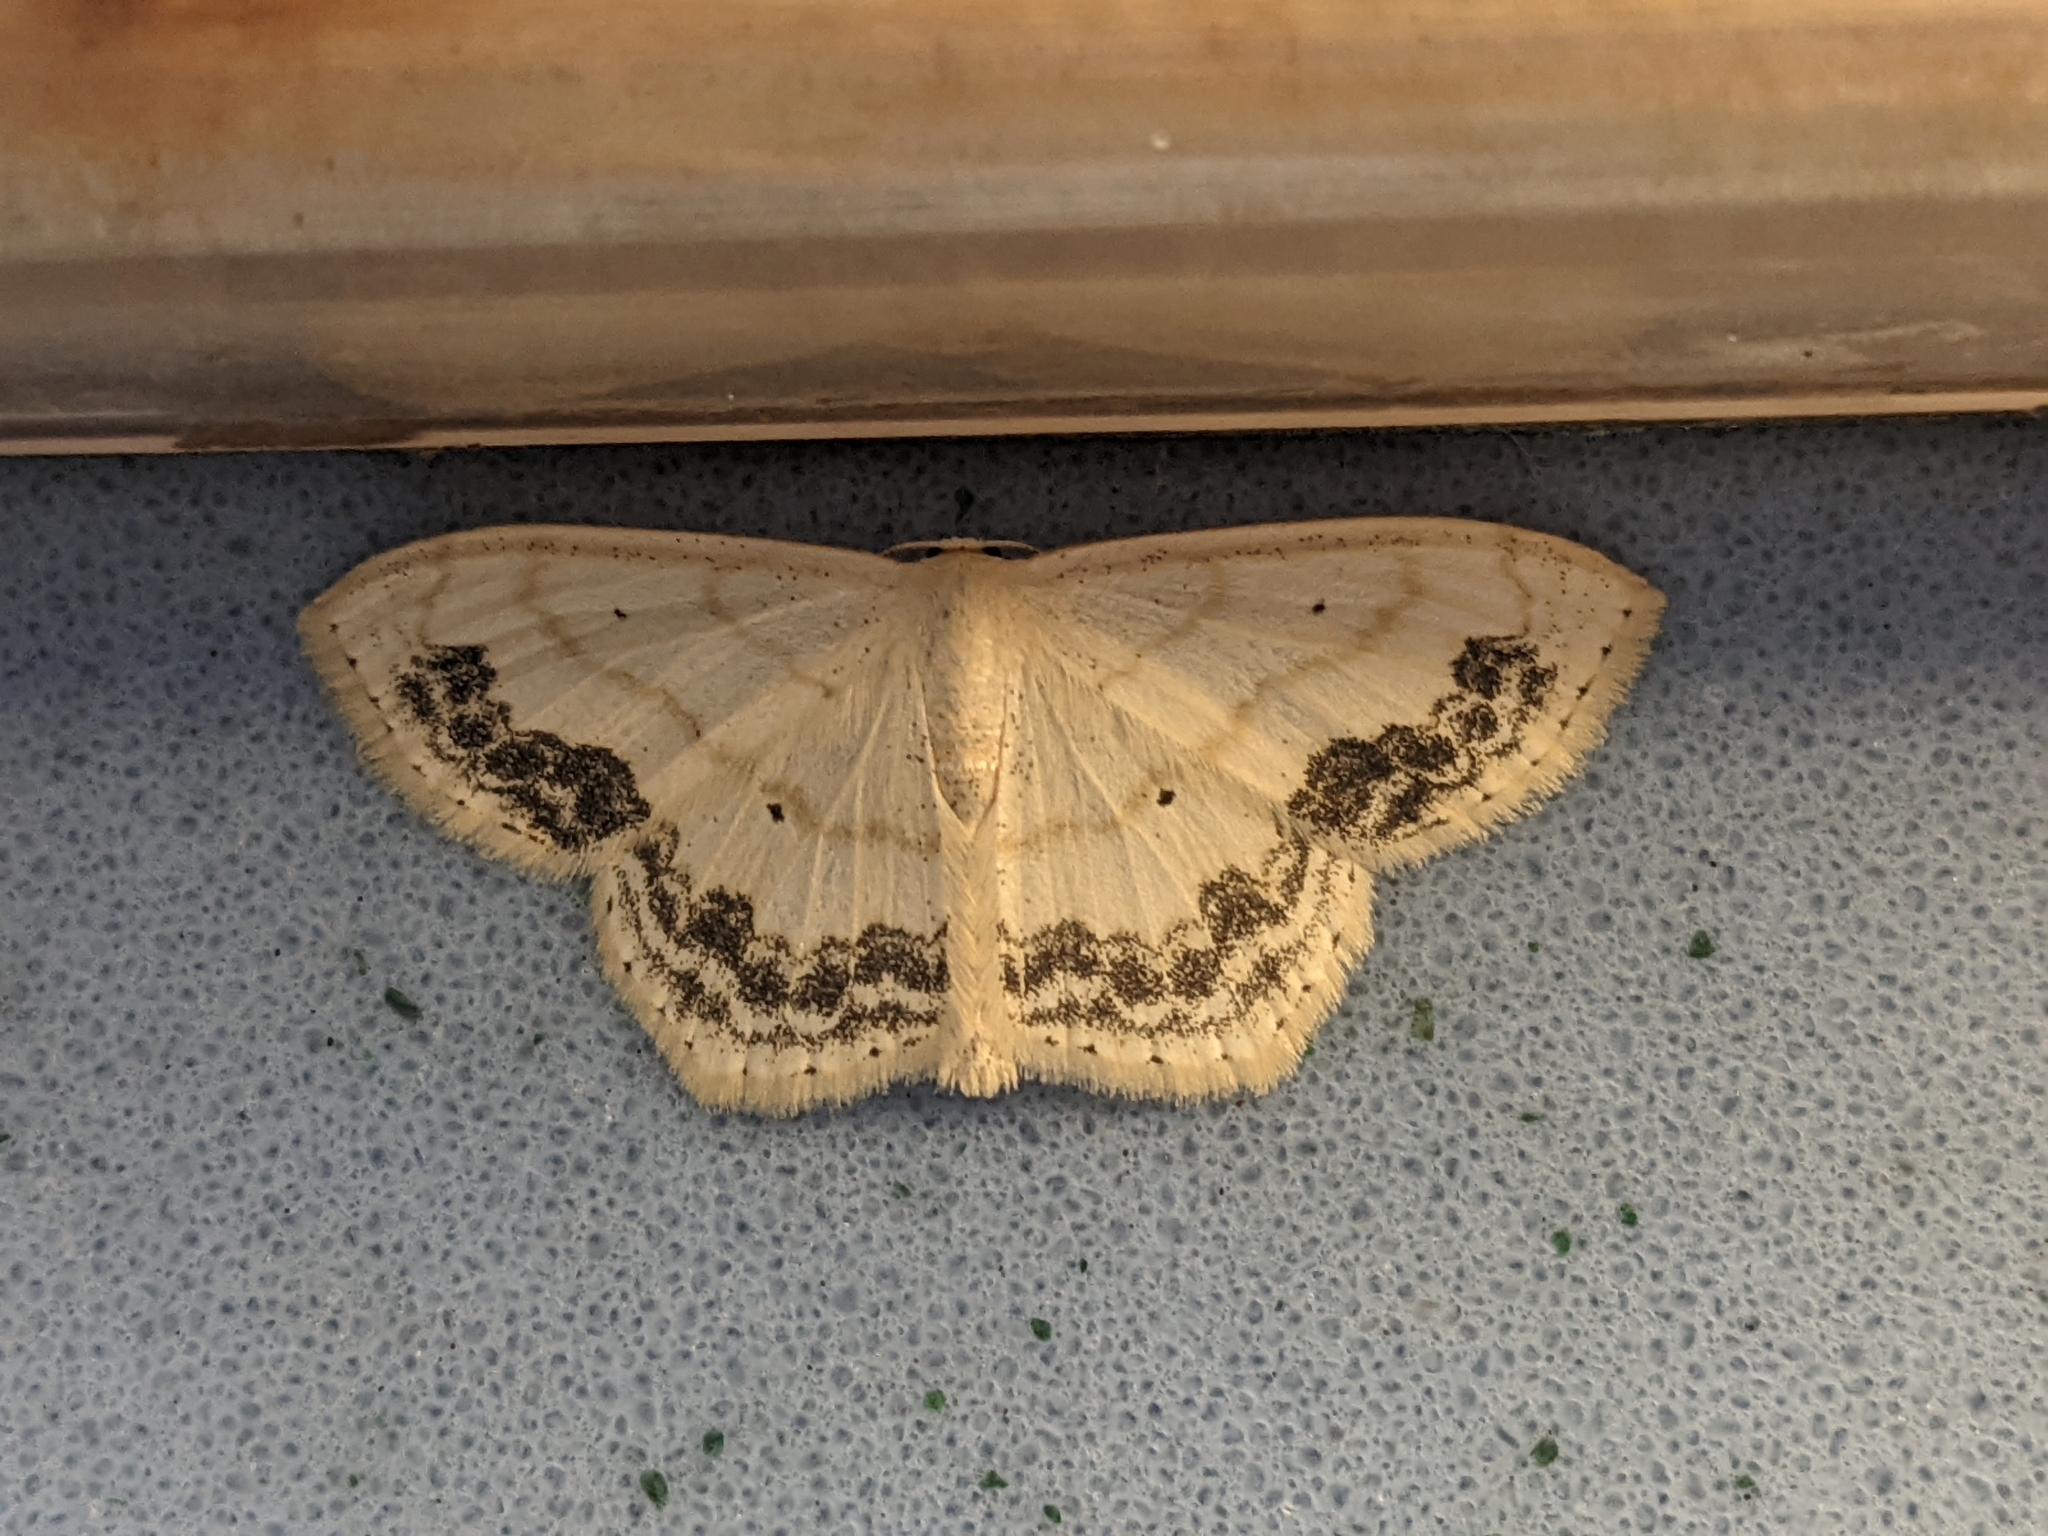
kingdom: Animalia
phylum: Arthropoda
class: Insecta
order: Lepidoptera
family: Geometridae
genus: Scopula
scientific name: Scopula limboundata
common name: Large lace border
